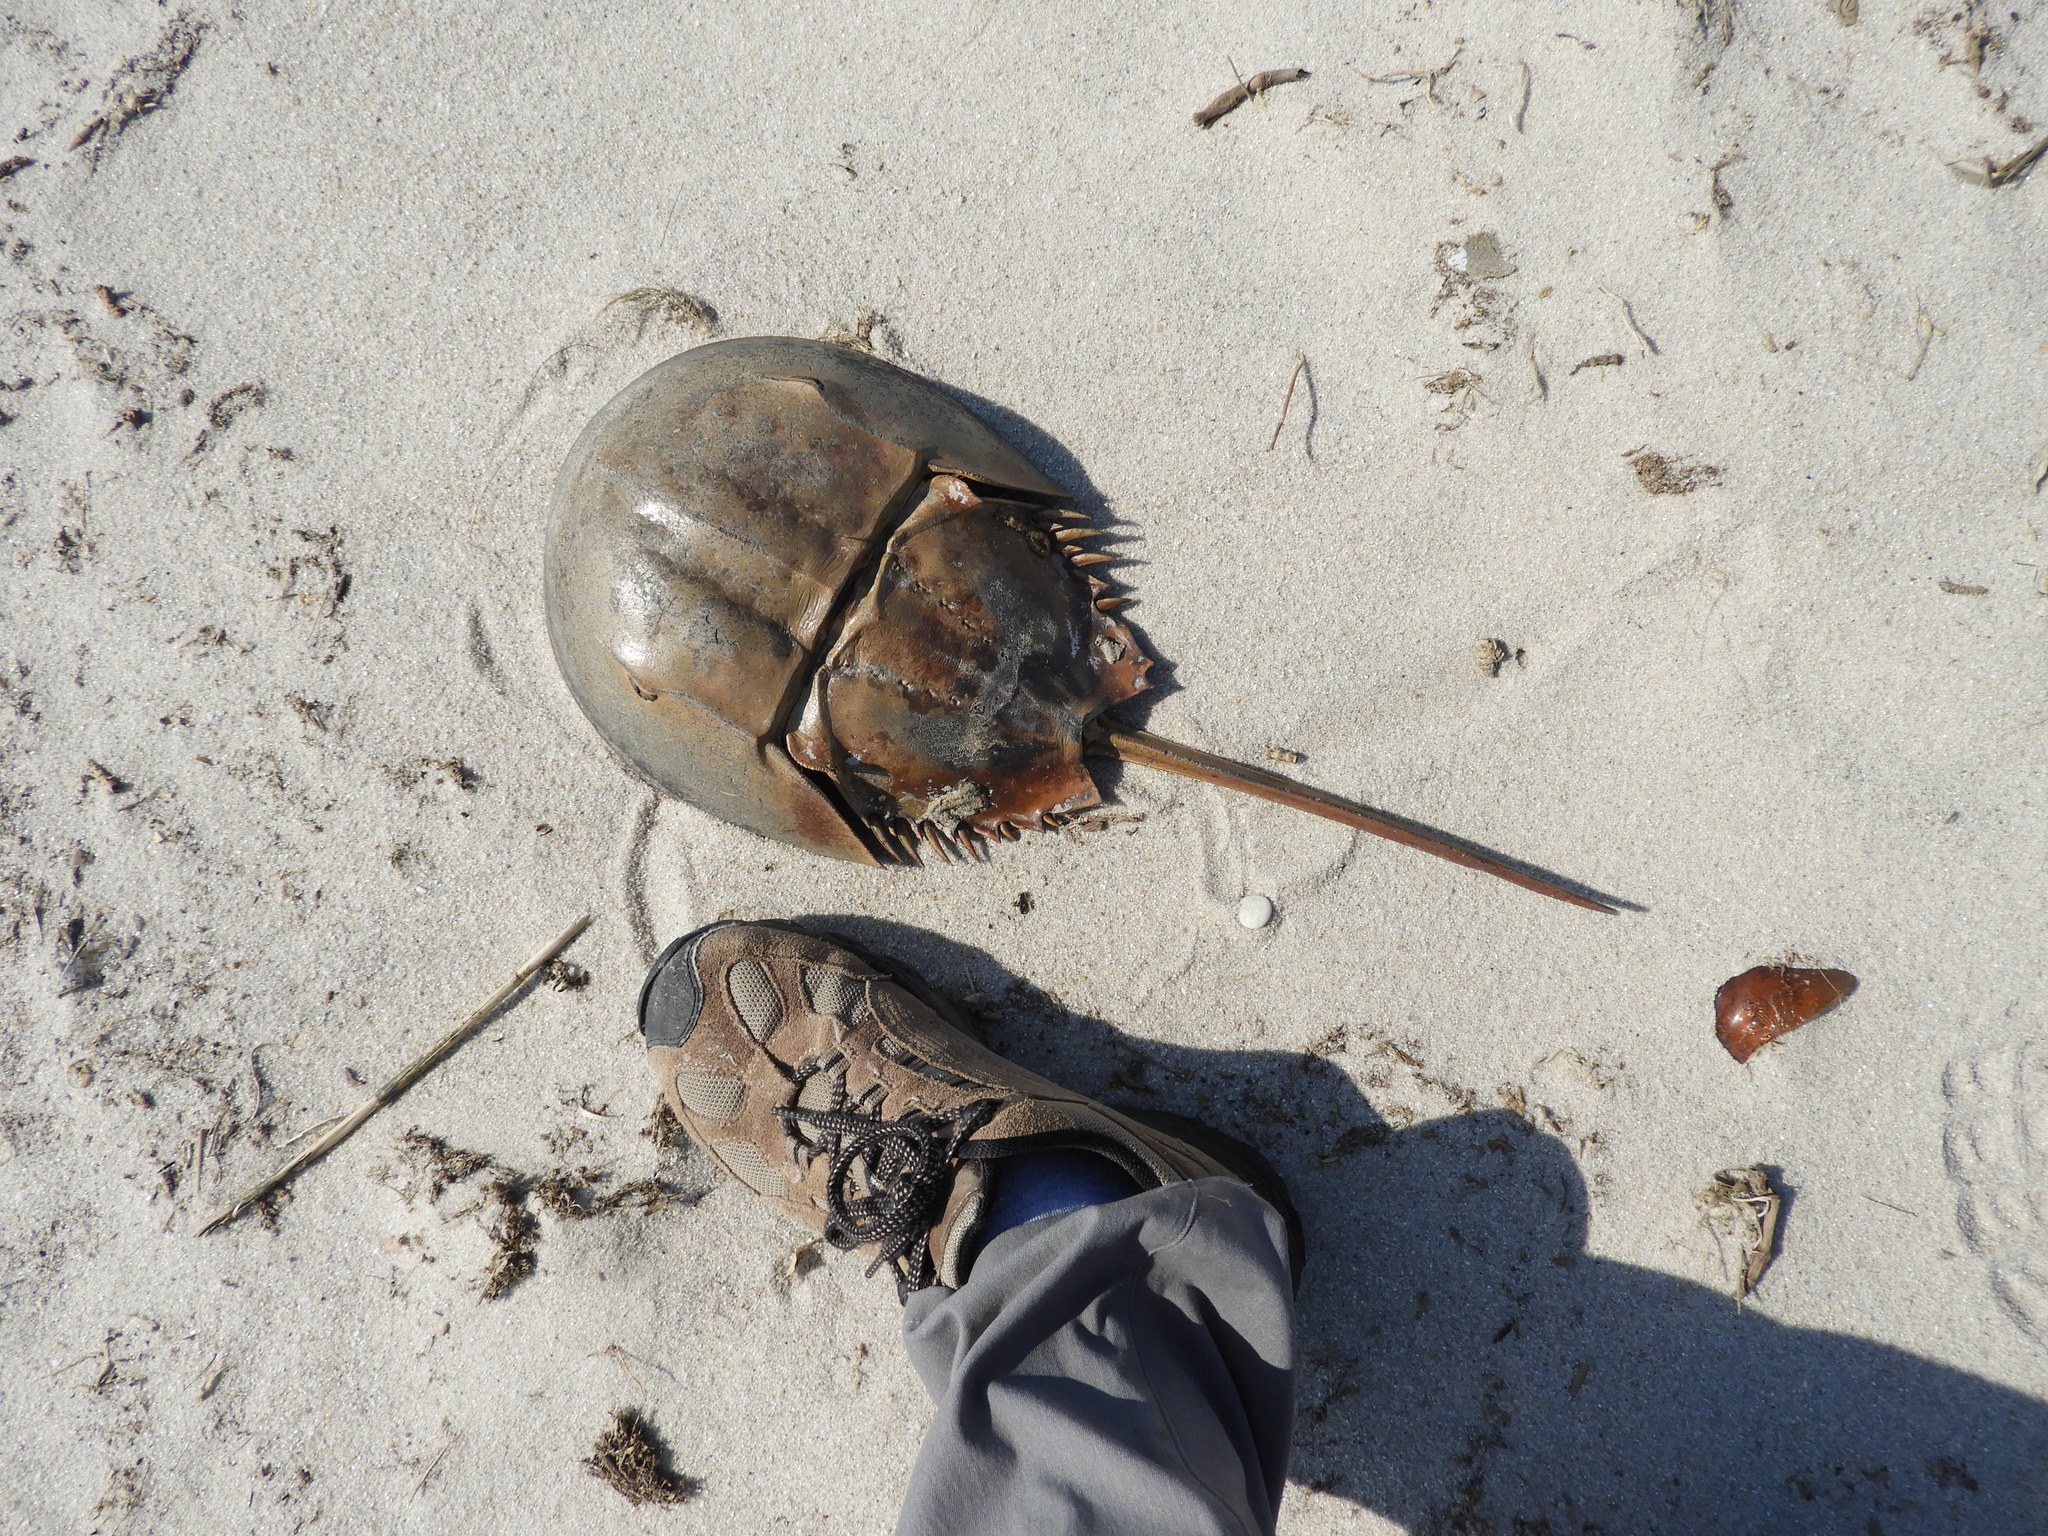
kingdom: Animalia
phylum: Arthropoda
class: Merostomata
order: Xiphosurida
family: Limulidae
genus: Limulus
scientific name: Limulus polyphemus
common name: Horseshoe crab
